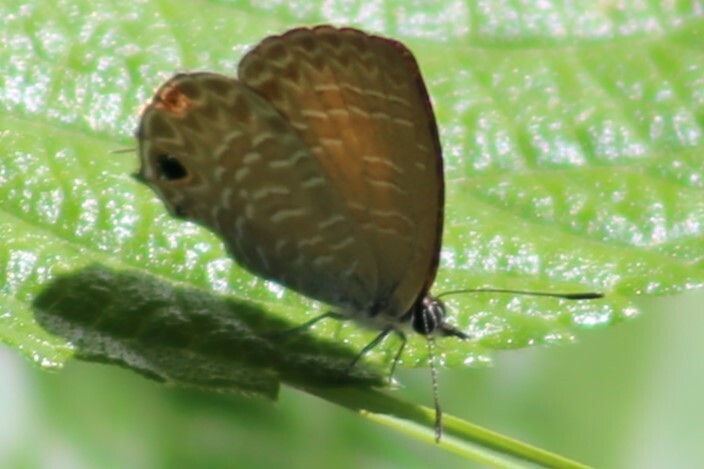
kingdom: Animalia
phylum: Arthropoda
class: Insecta
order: Lepidoptera
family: Lycaenidae
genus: Nacaduba
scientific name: Nacaduba berenice
